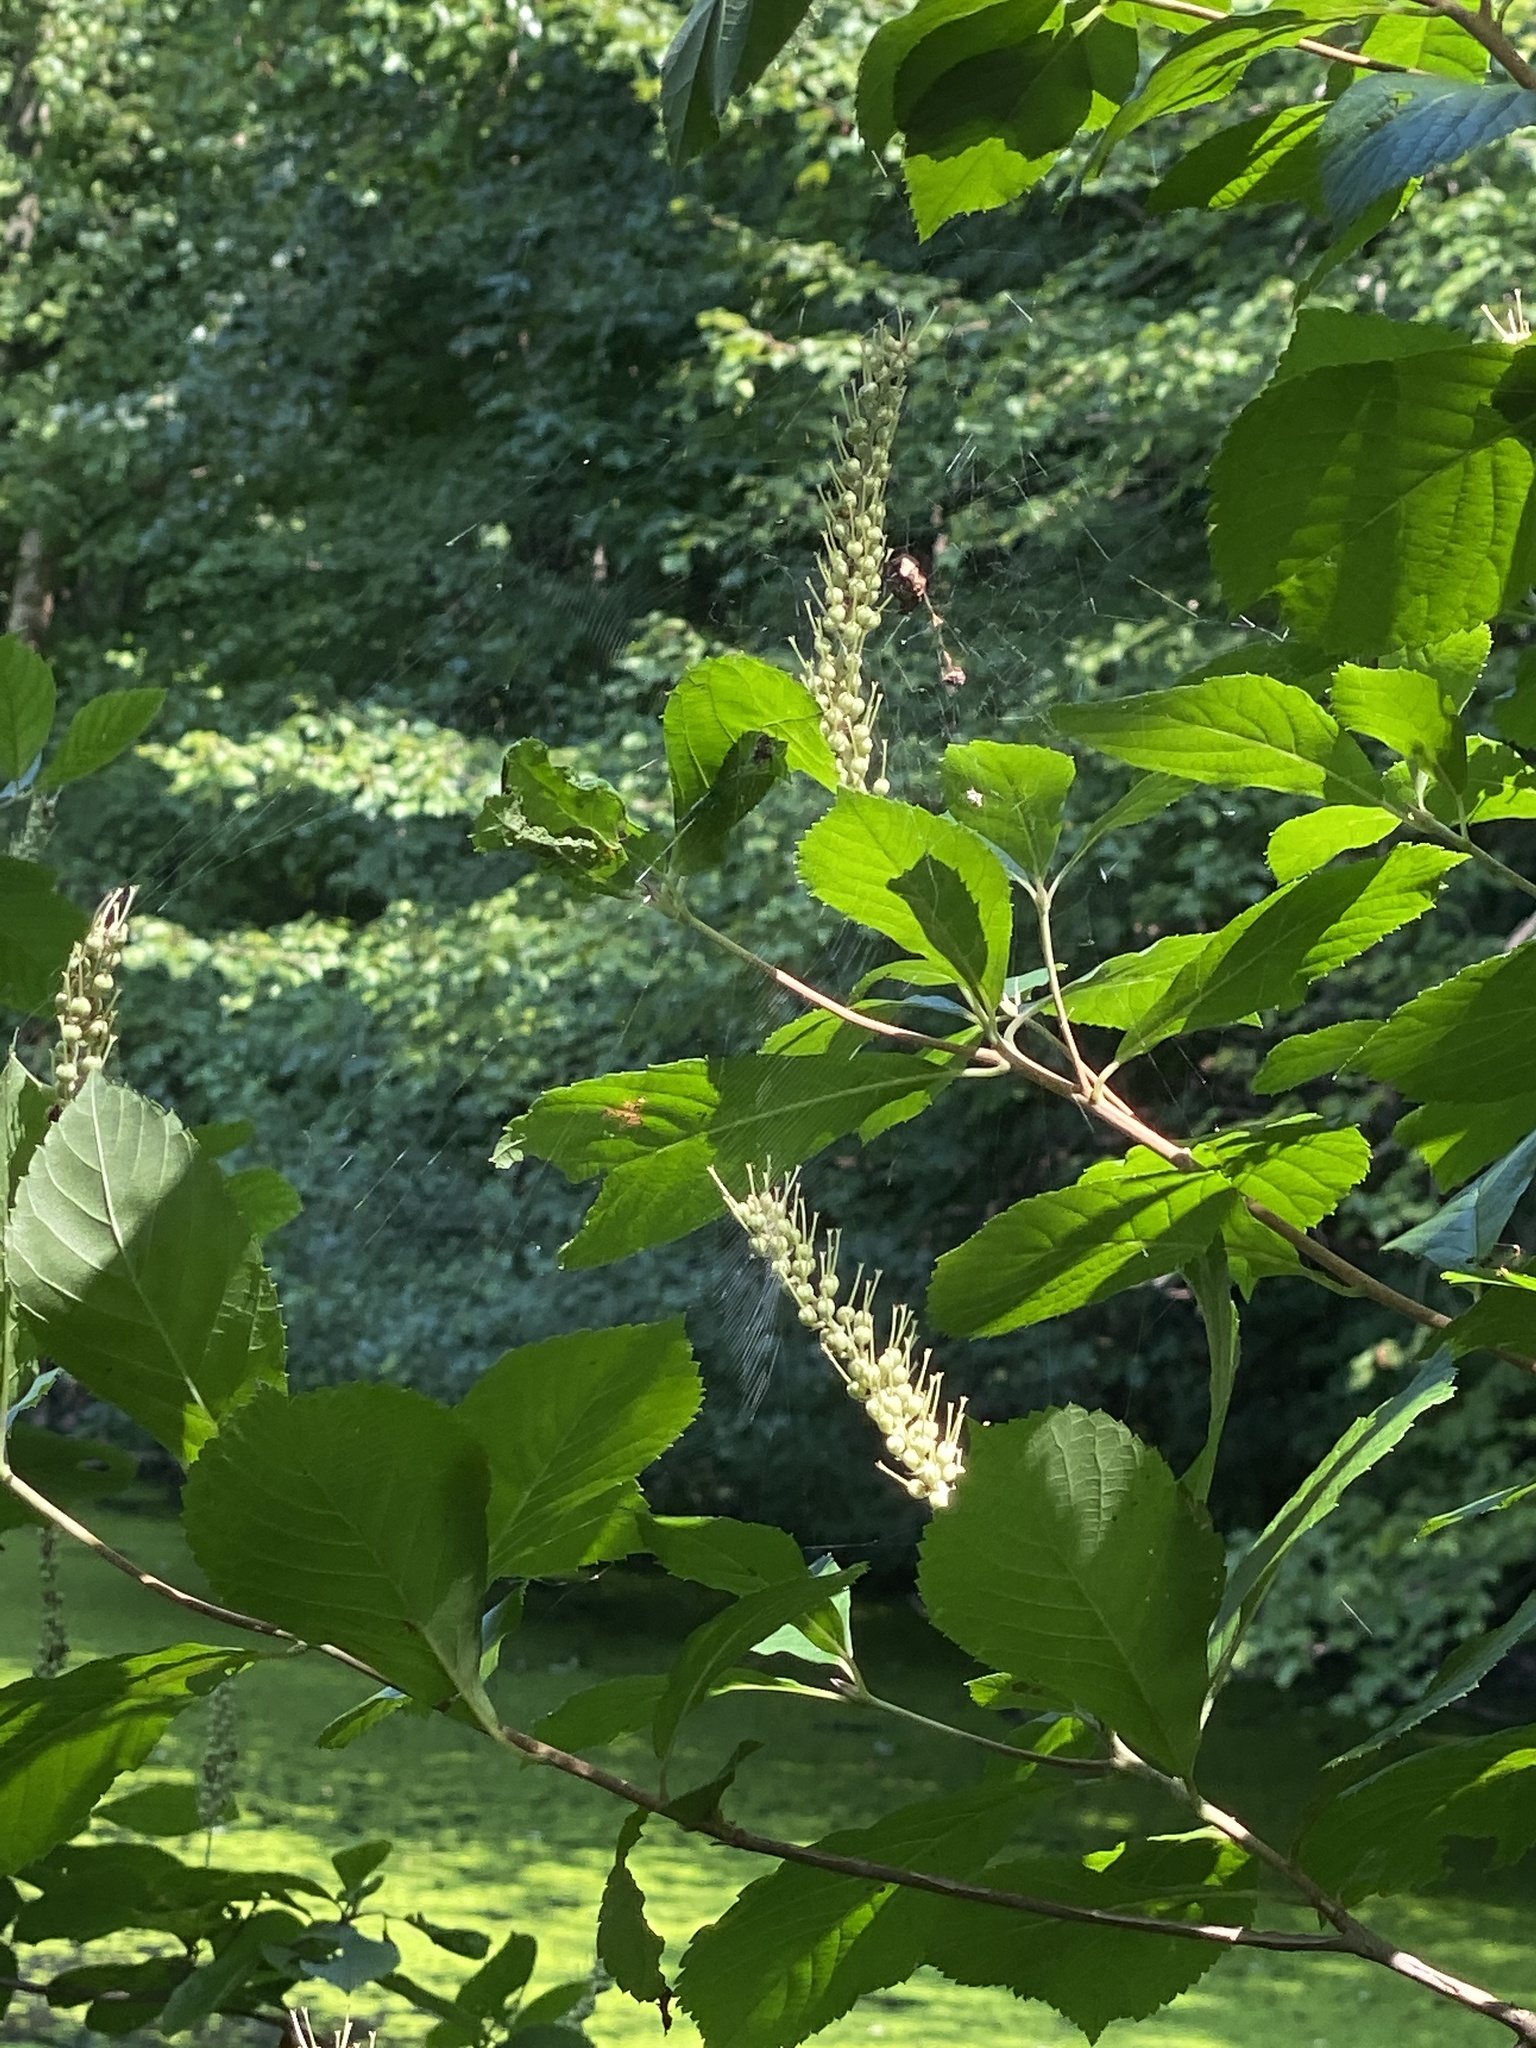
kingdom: Plantae
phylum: Tracheophyta
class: Magnoliopsida
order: Ericales
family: Clethraceae
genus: Clethra
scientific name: Clethra alnifolia
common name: Sweet pepperbush
